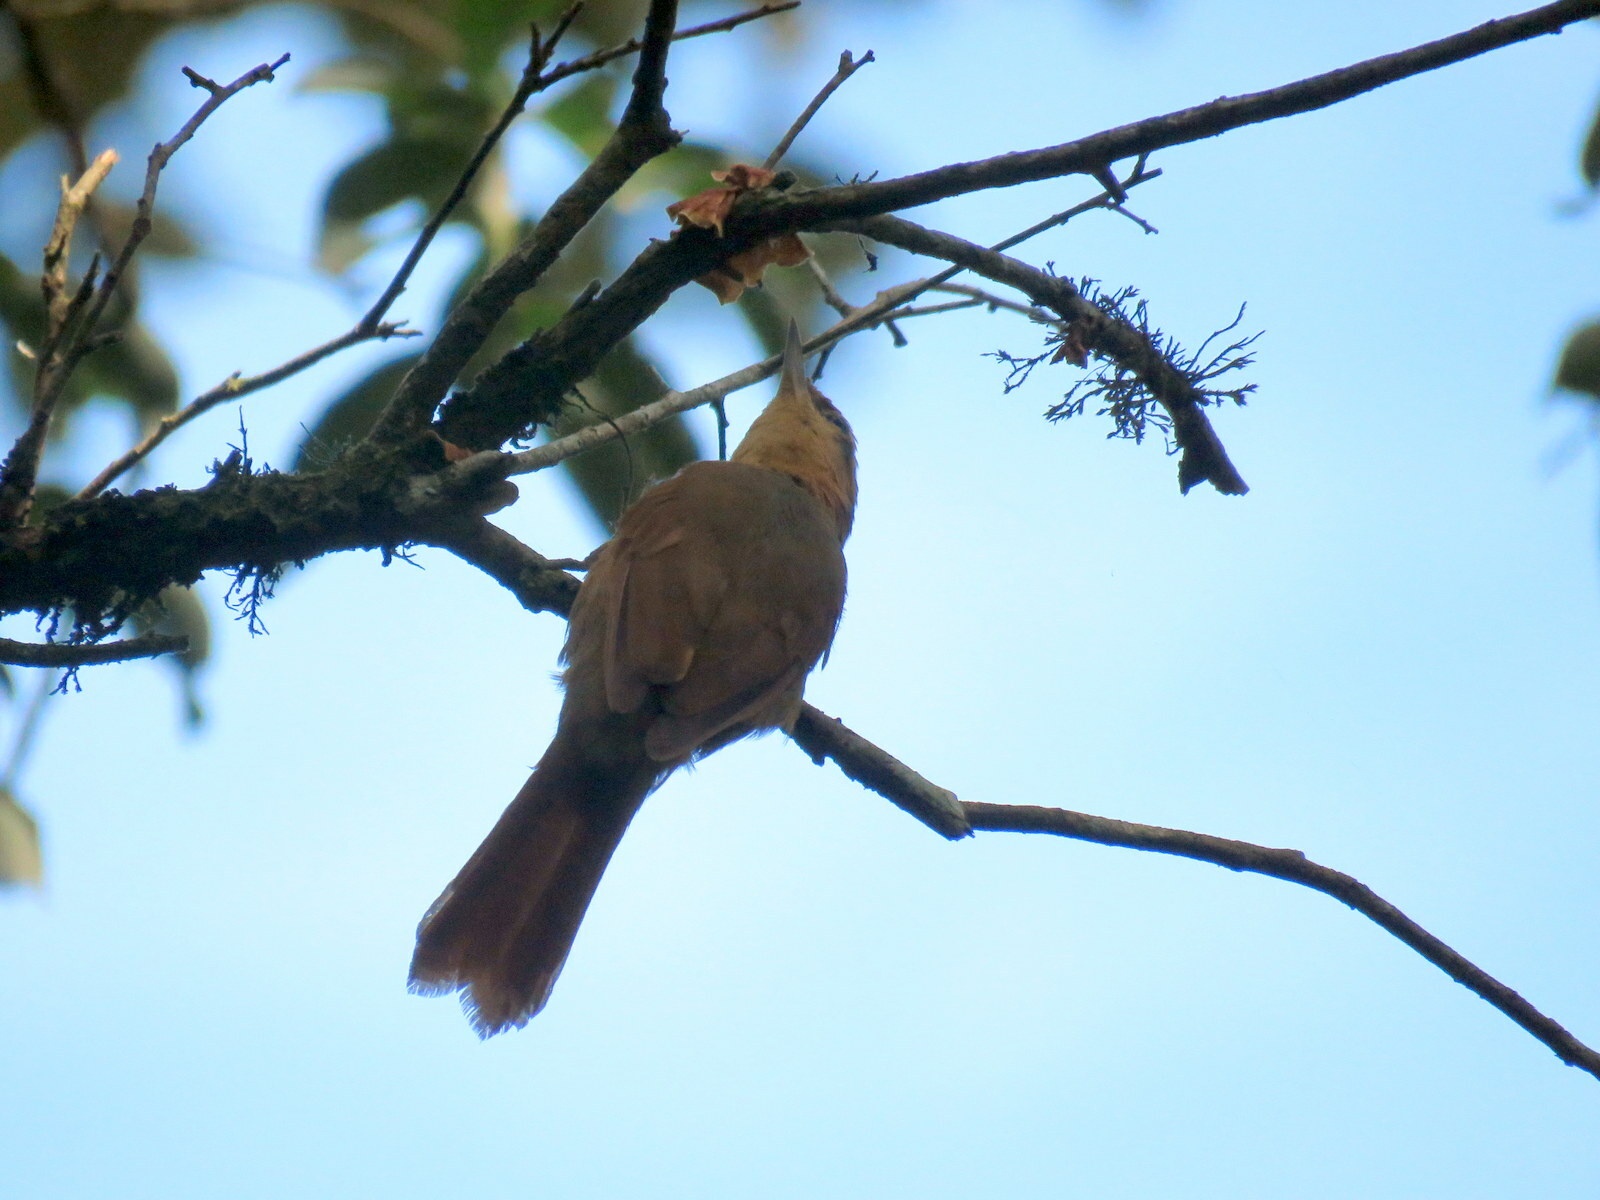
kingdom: Animalia
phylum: Chordata
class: Aves
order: Passeriformes
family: Furnariidae
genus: Philydor
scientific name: Philydor lichtensteini
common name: Ochre-breasted foliage-gleaner
